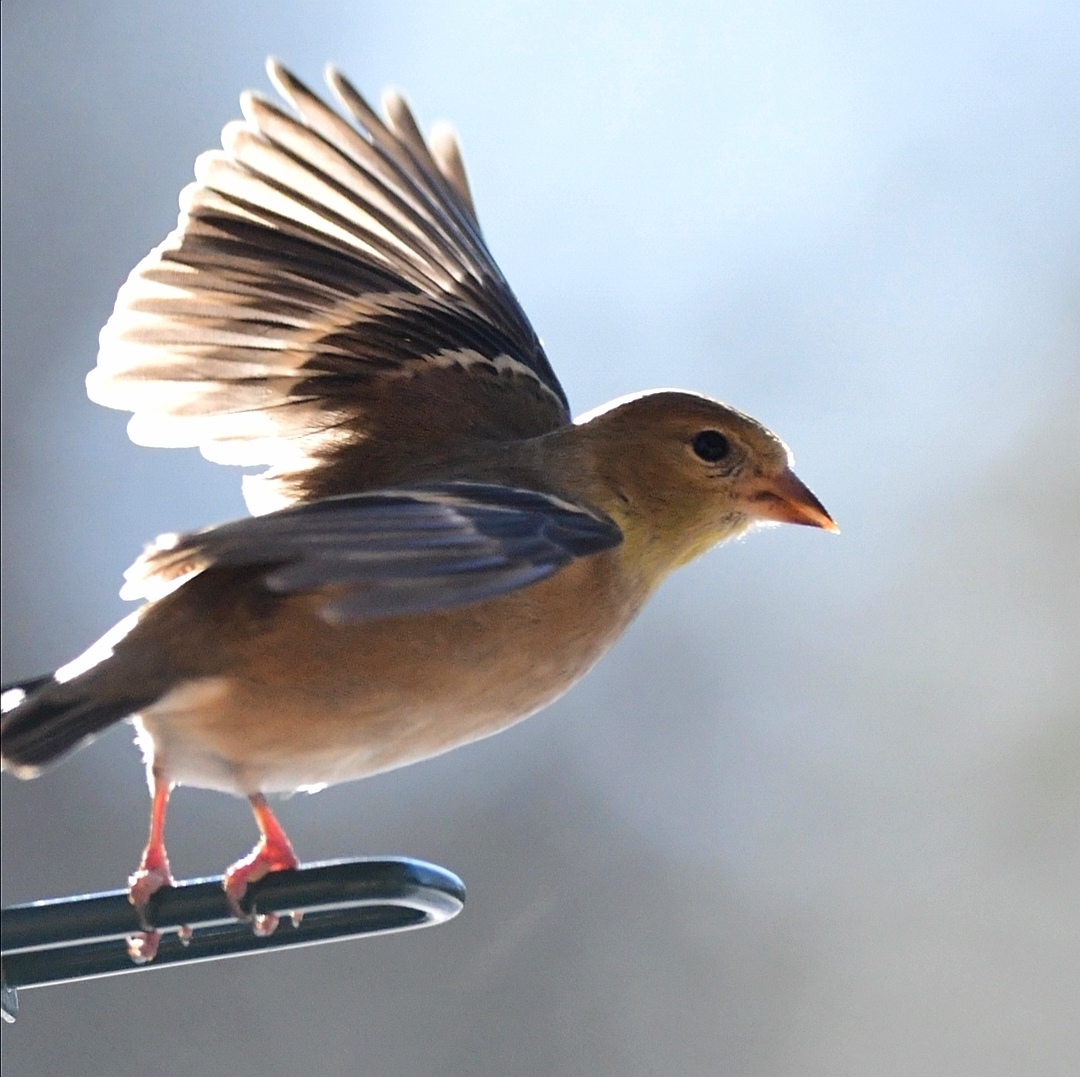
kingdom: Animalia
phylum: Chordata
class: Aves
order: Passeriformes
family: Fringillidae
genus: Spinus
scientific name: Spinus tristis
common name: American goldfinch
